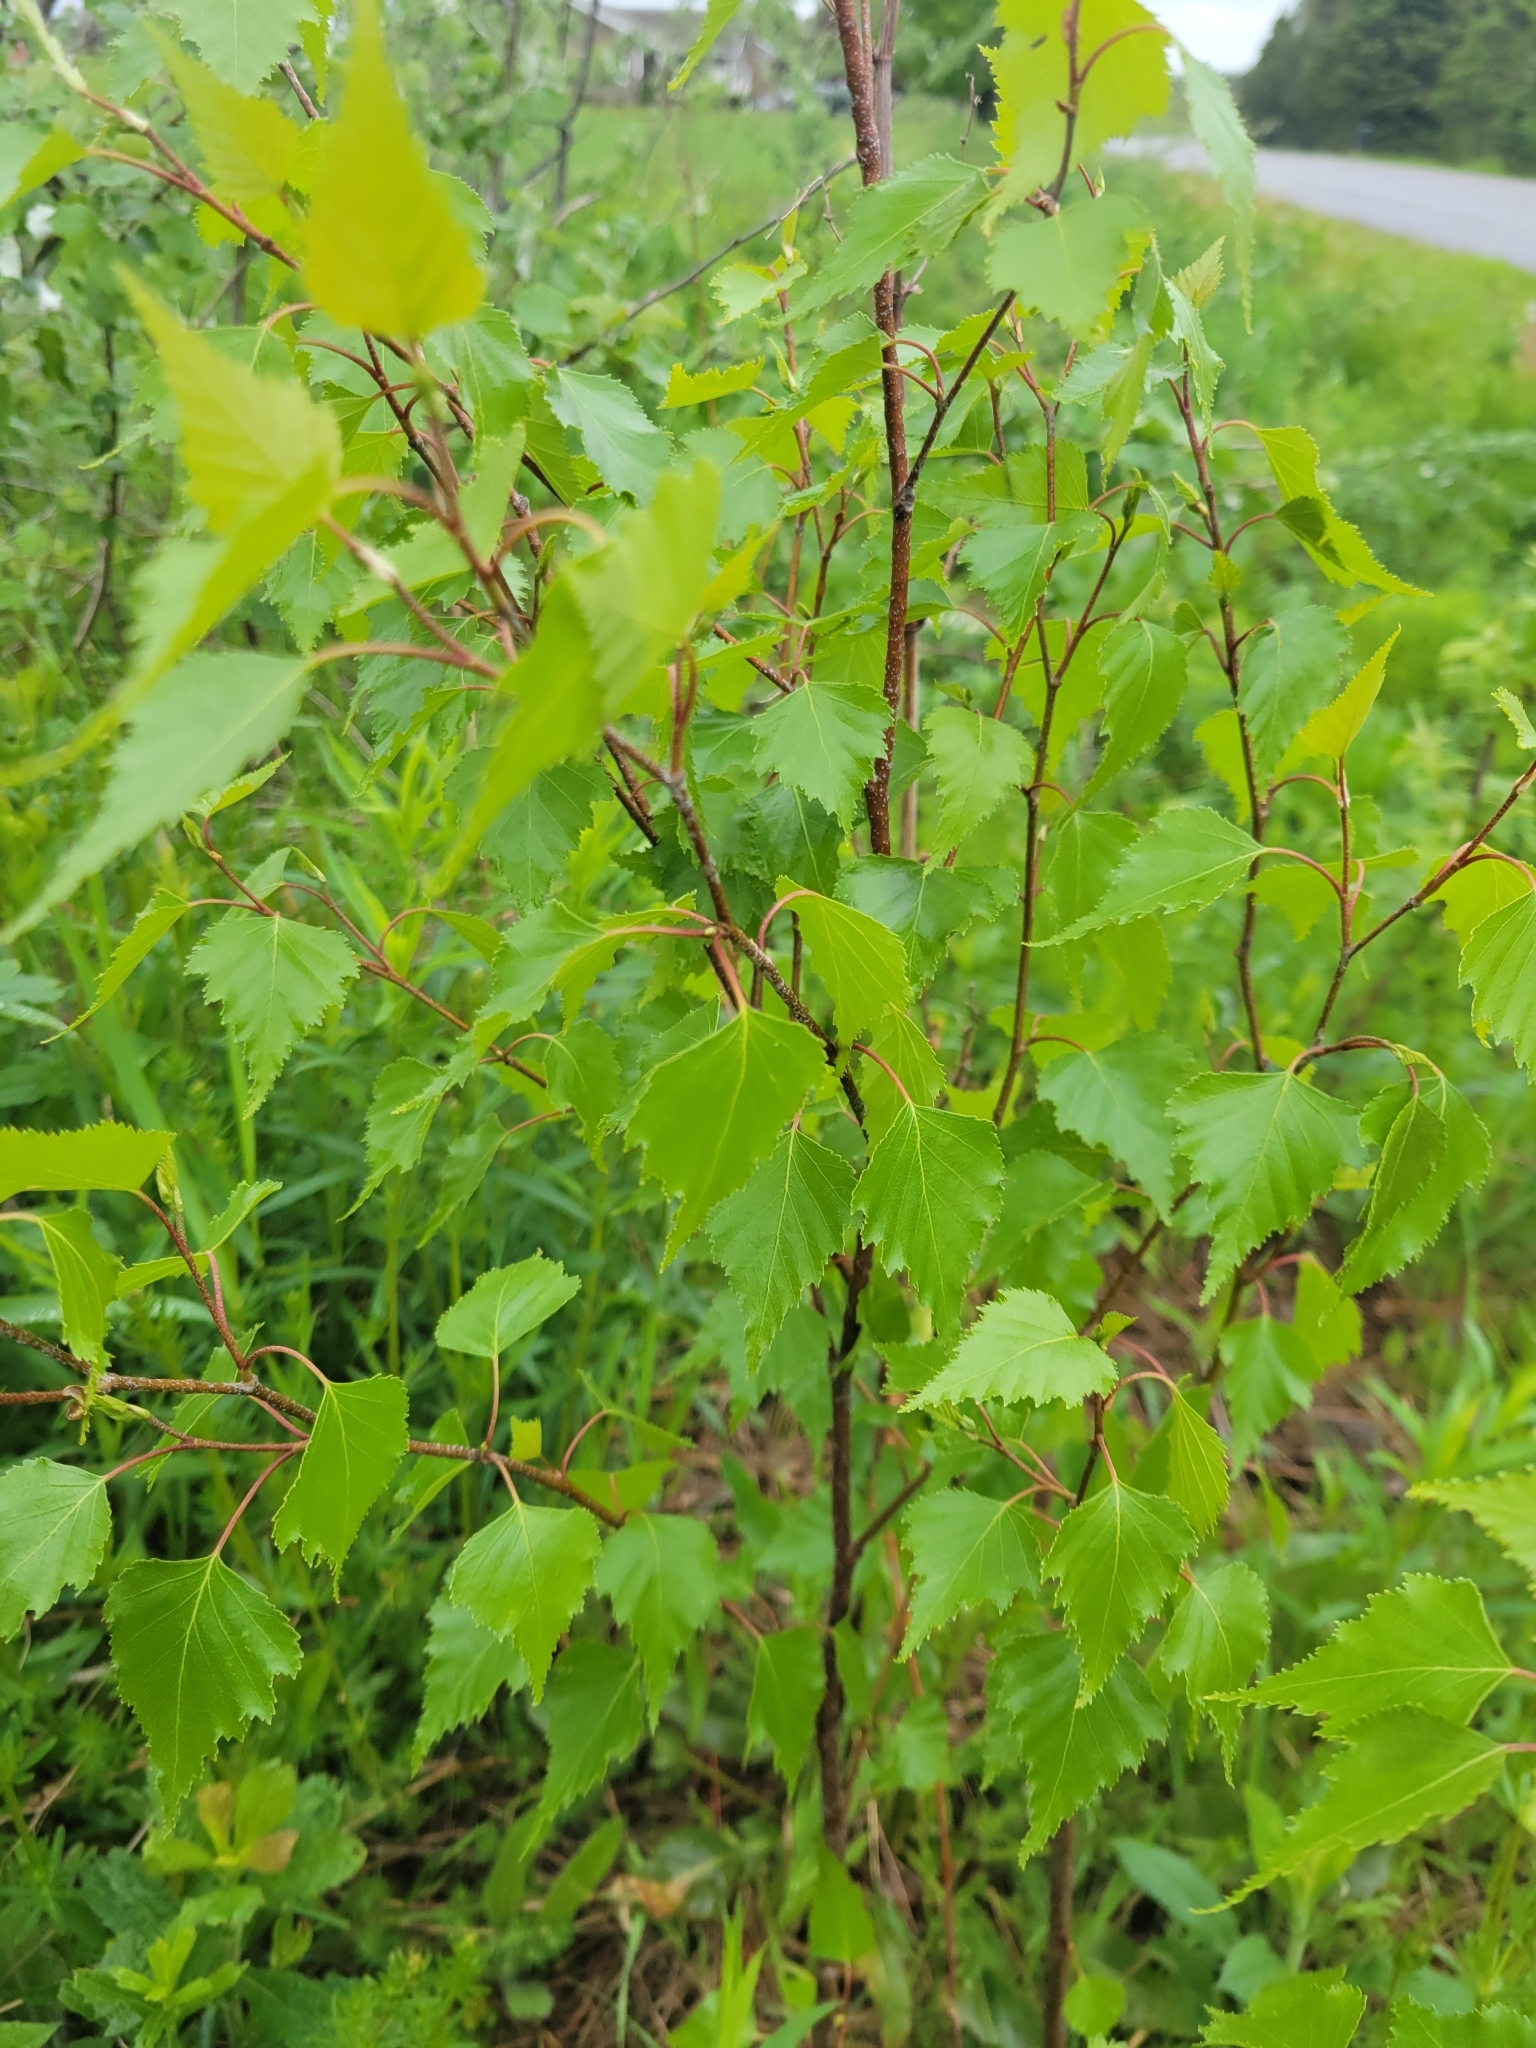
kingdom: Plantae
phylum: Tracheophyta
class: Magnoliopsida
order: Fagales
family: Betulaceae
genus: Betula
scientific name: Betula populifolia
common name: Fire birch
